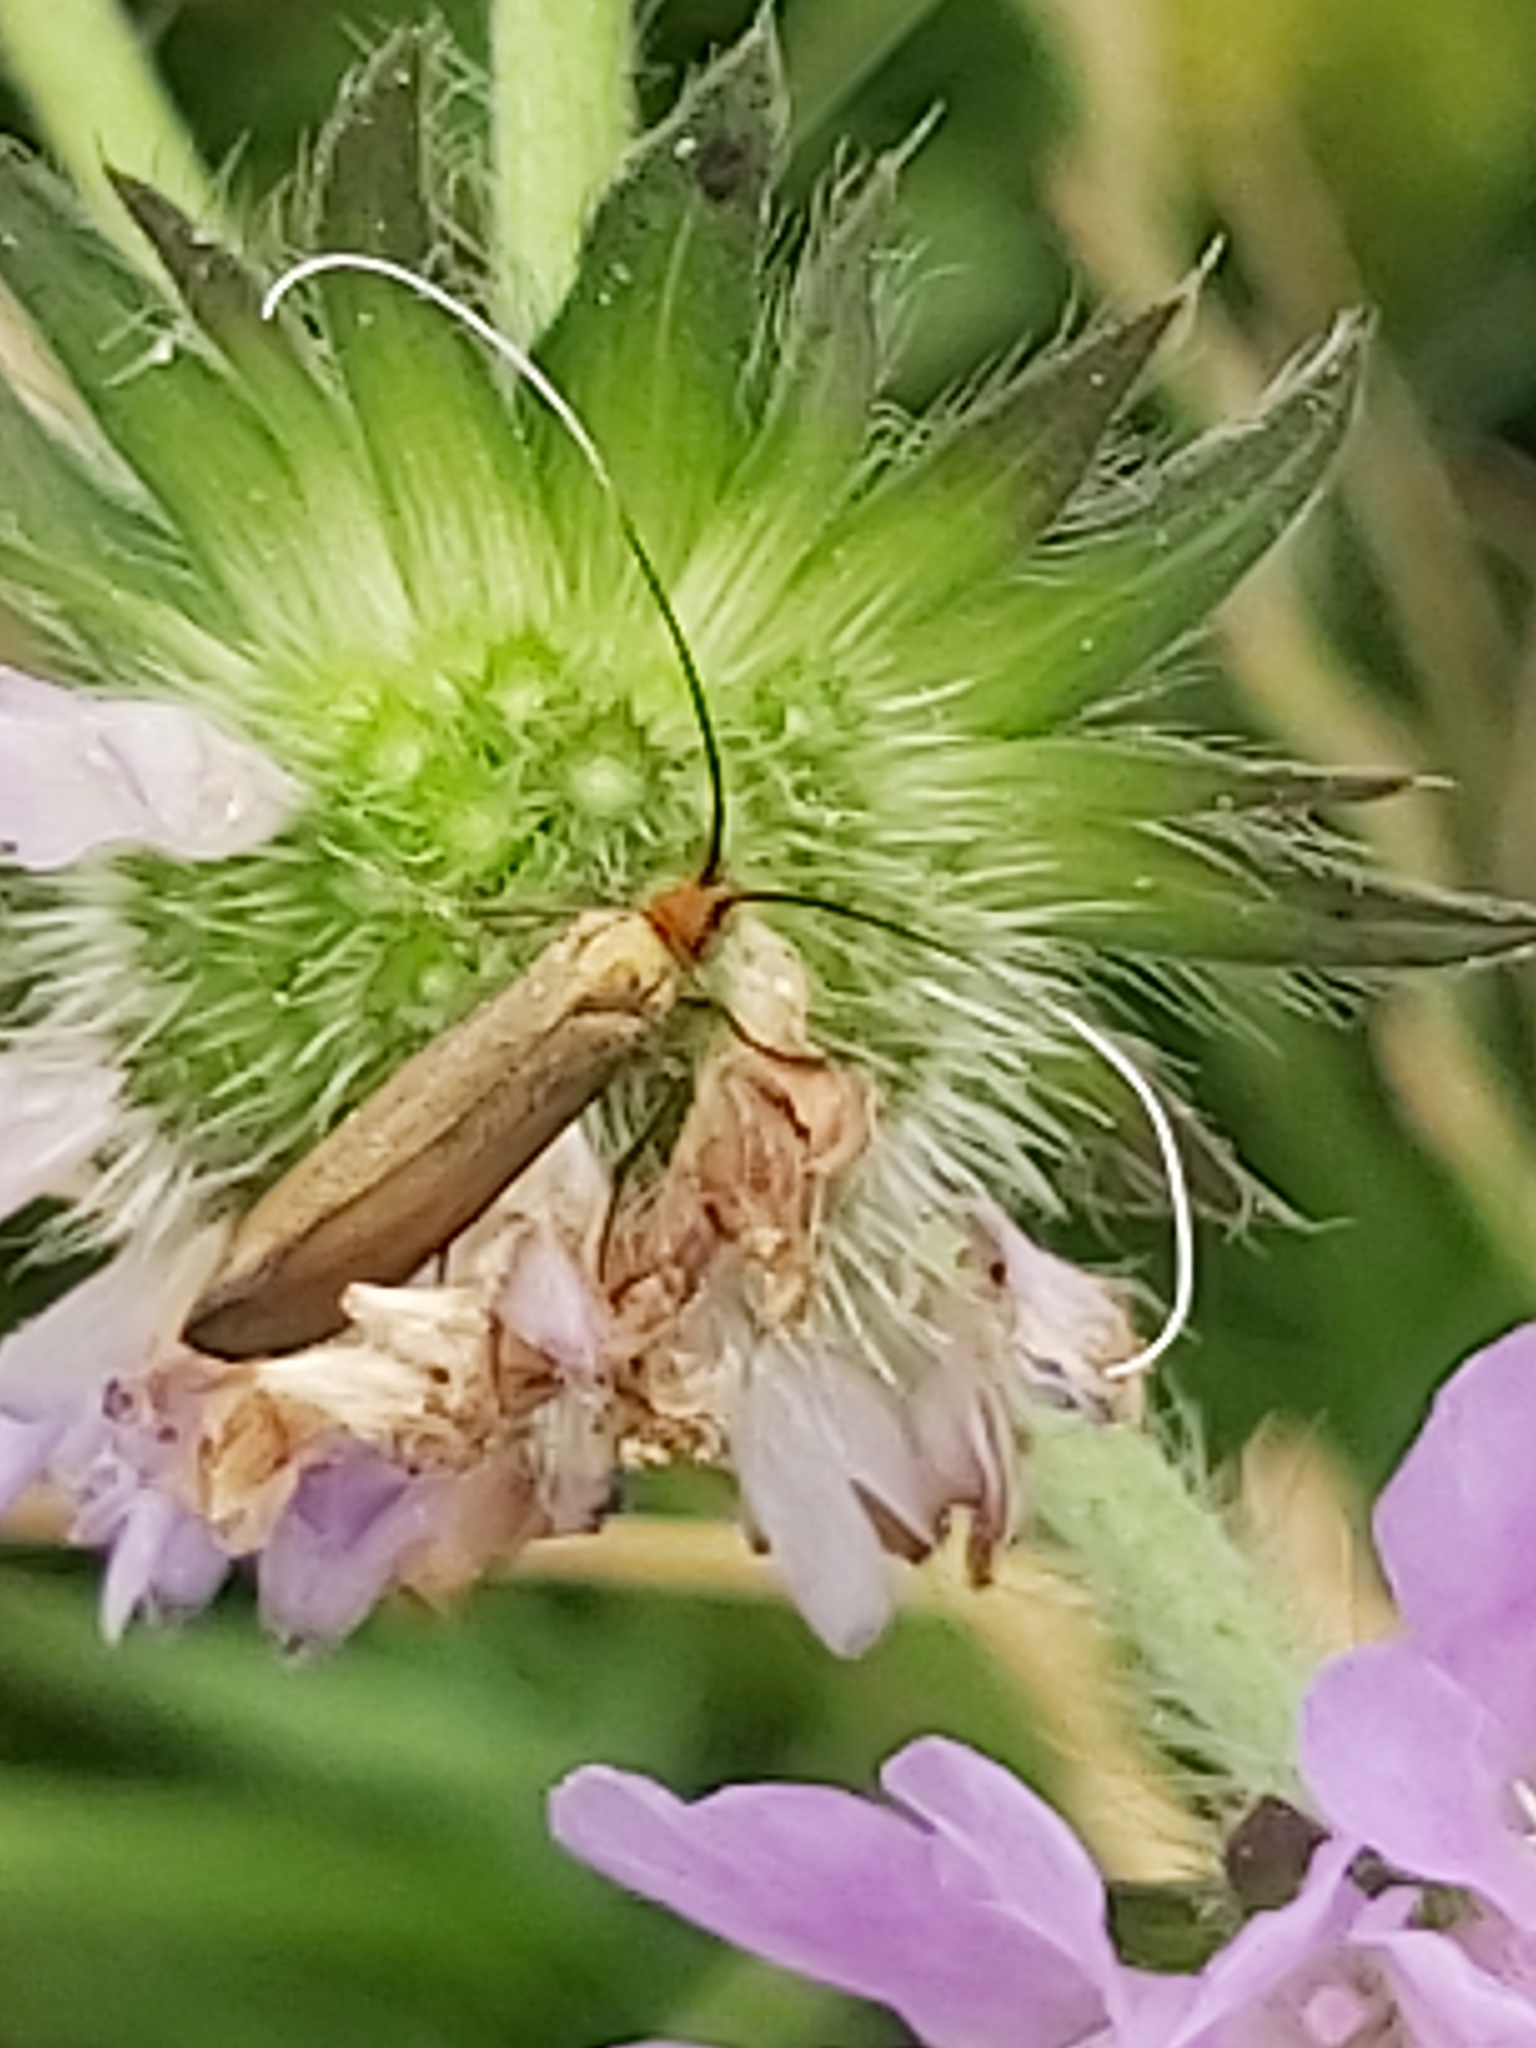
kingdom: Animalia
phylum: Arthropoda
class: Insecta
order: Lepidoptera
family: Adelidae
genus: Nemophora
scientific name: Nemophora metallica
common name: Brassy long-horn
